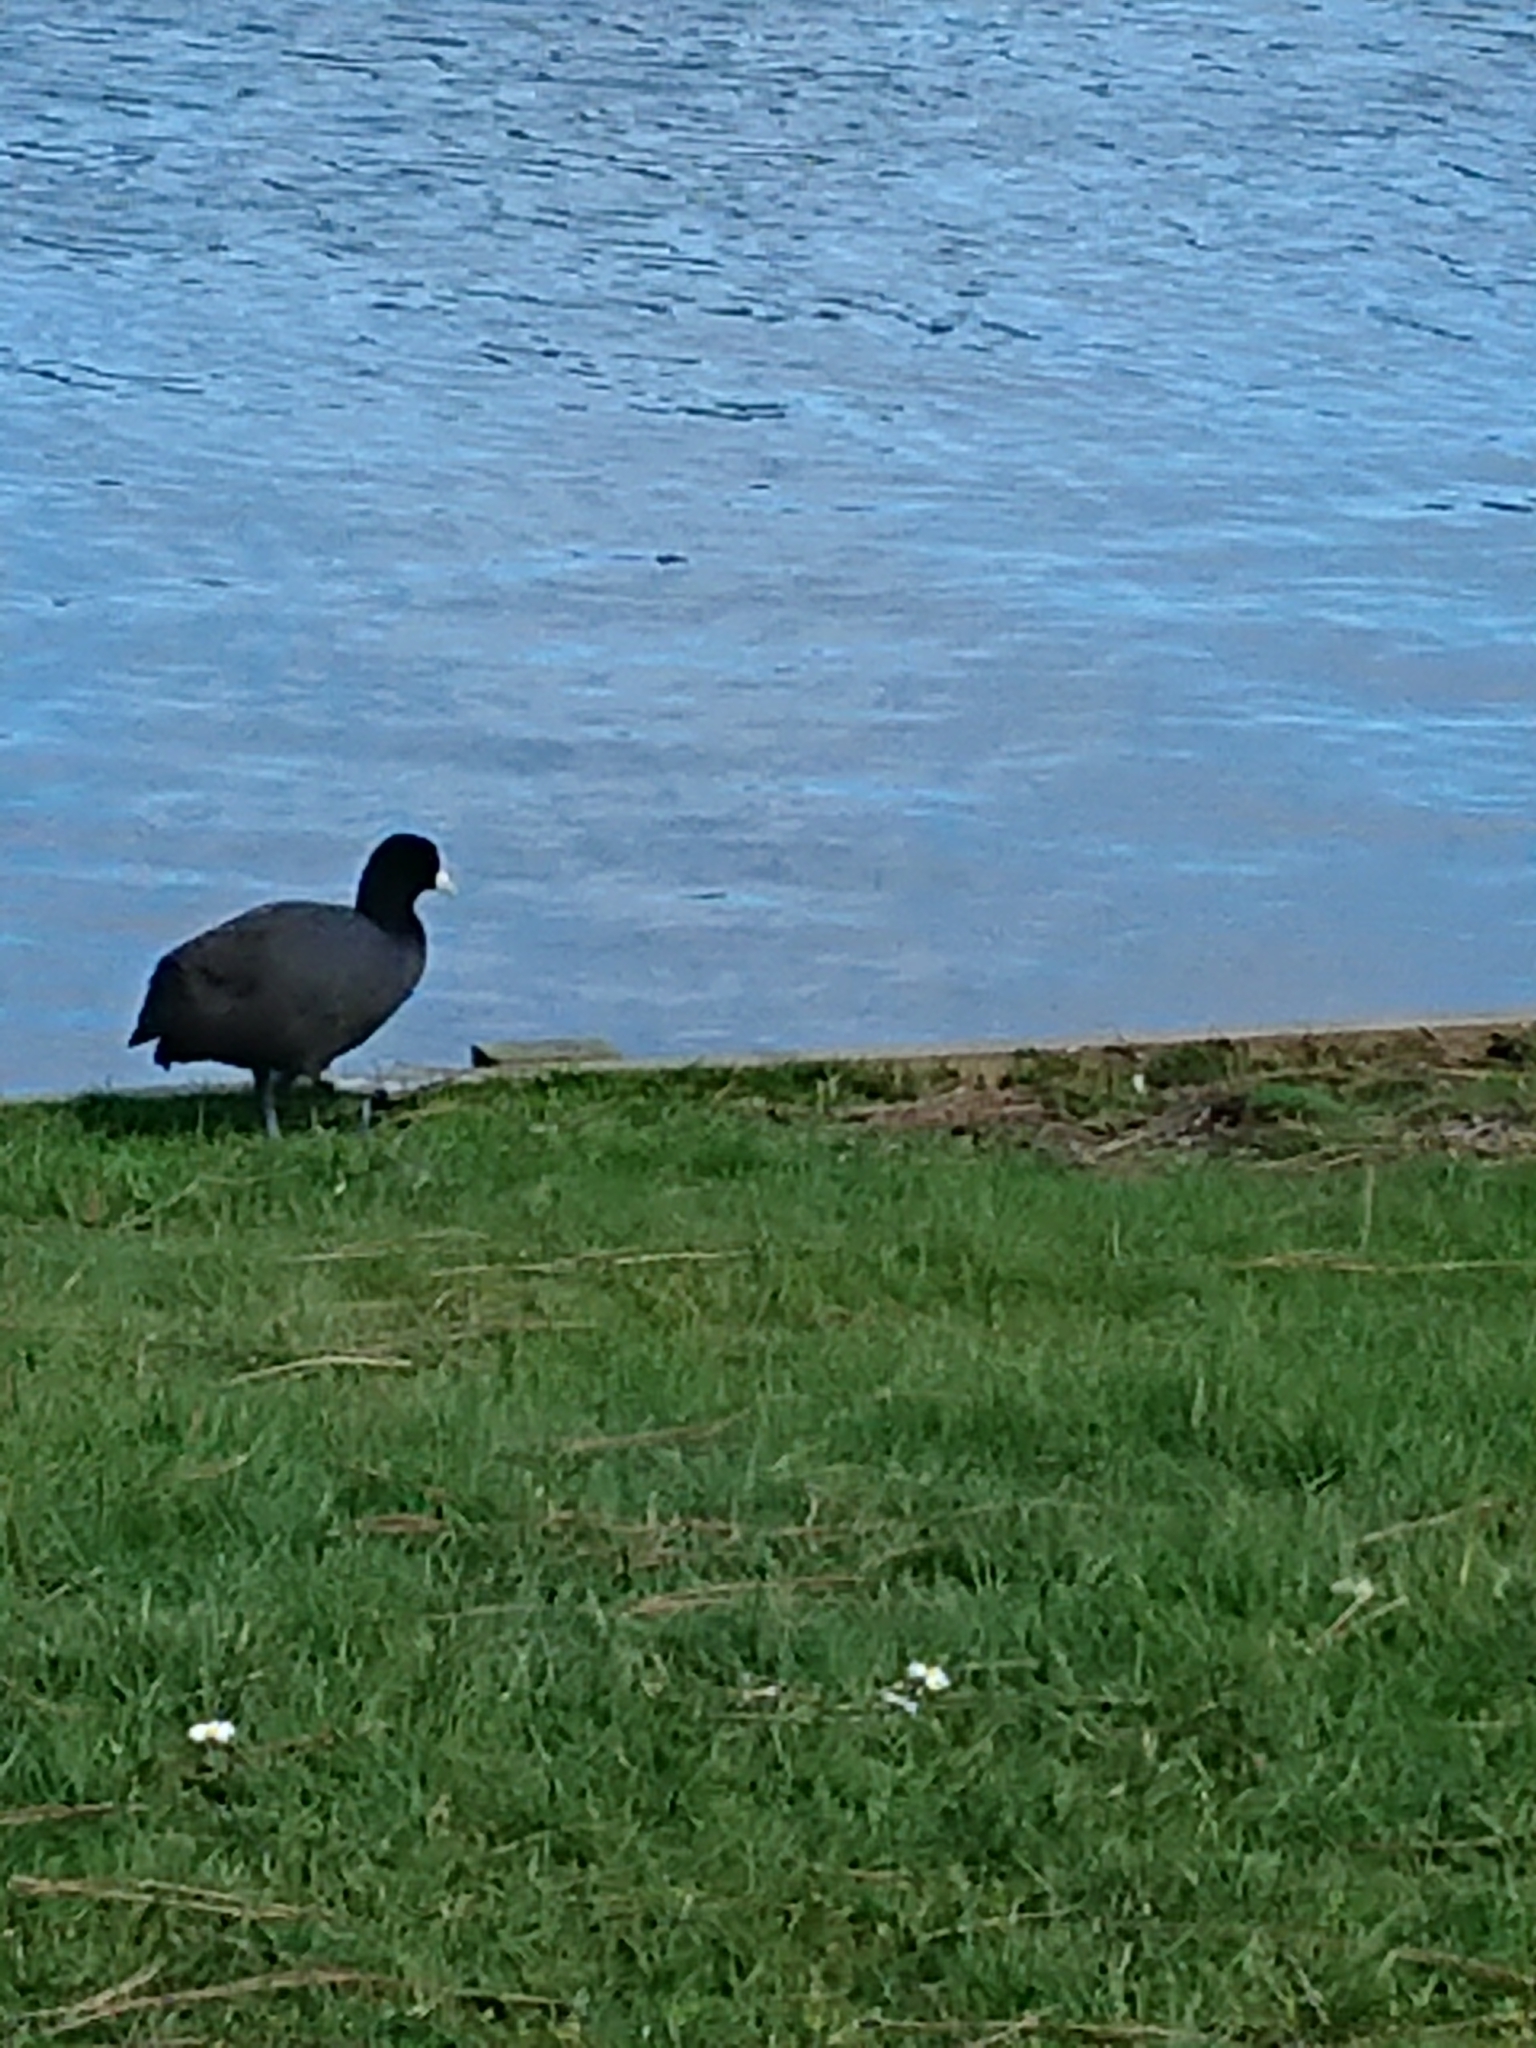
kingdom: Animalia
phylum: Chordata
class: Aves
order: Gruiformes
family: Rallidae
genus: Fulica
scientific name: Fulica atra
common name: Eurasian coot
